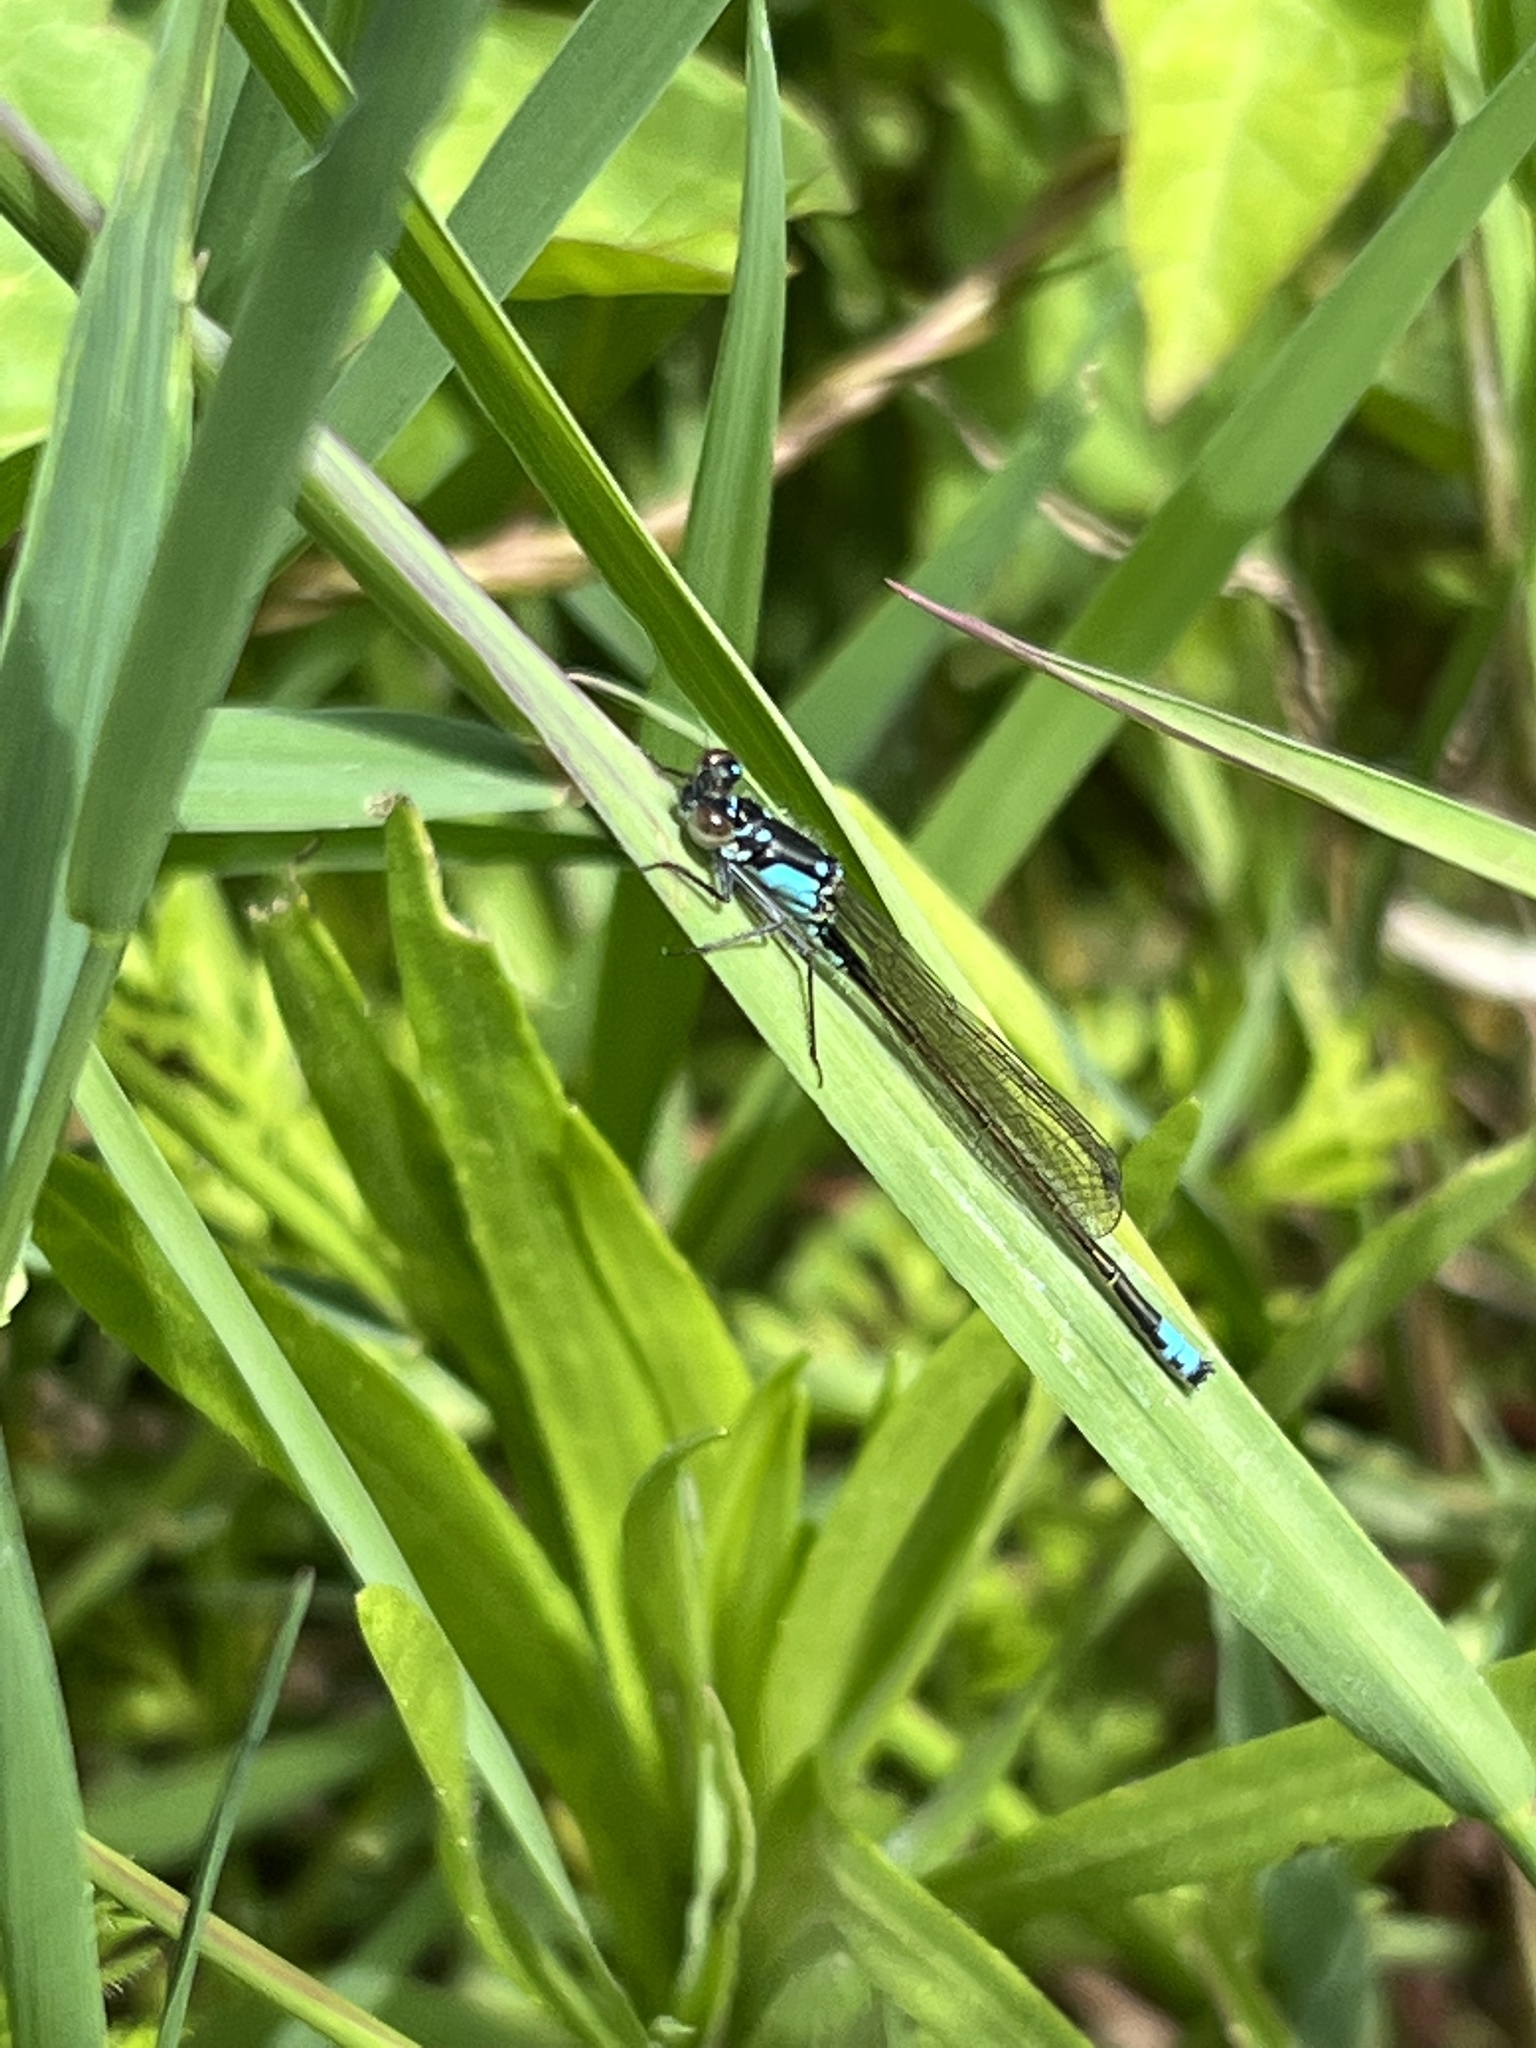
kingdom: Animalia
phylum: Arthropoda
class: Insecta
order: Odonata
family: Coenagrionidae
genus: Ischnura
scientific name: Ischnura cervula
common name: Pacific forktail
